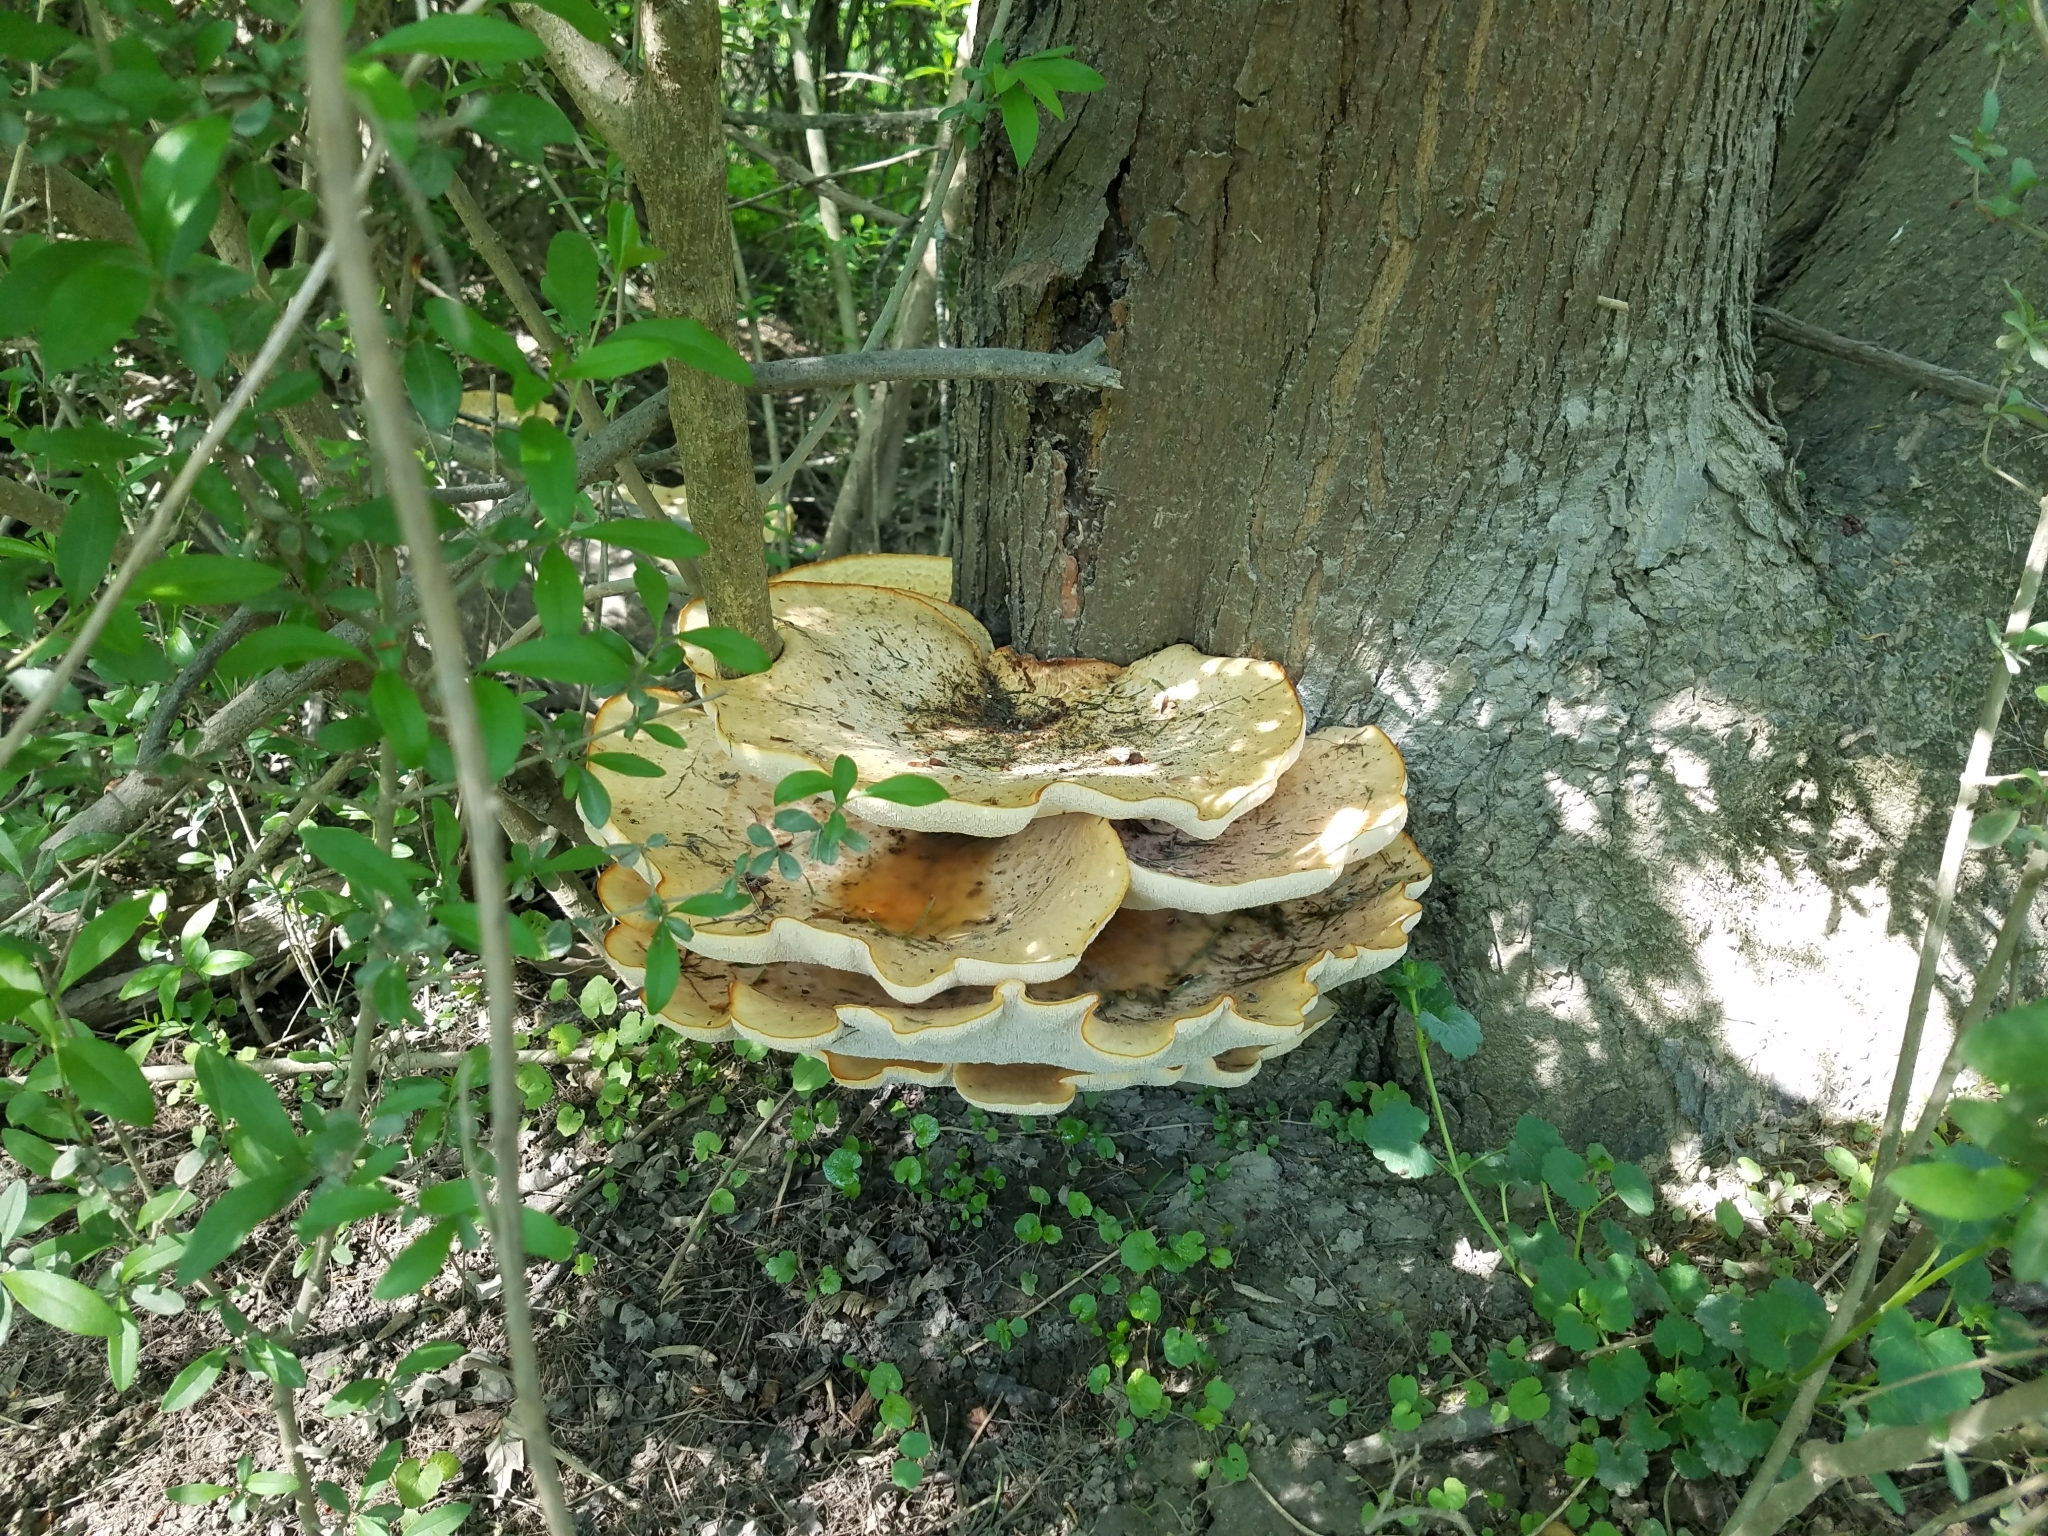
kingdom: Fungi
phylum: Basidiomycota
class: Agaricomycetes
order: Polyporales
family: Polyporaceae
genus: Cerioporus
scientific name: Cerioporus squamosus
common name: Dryad's saddle
